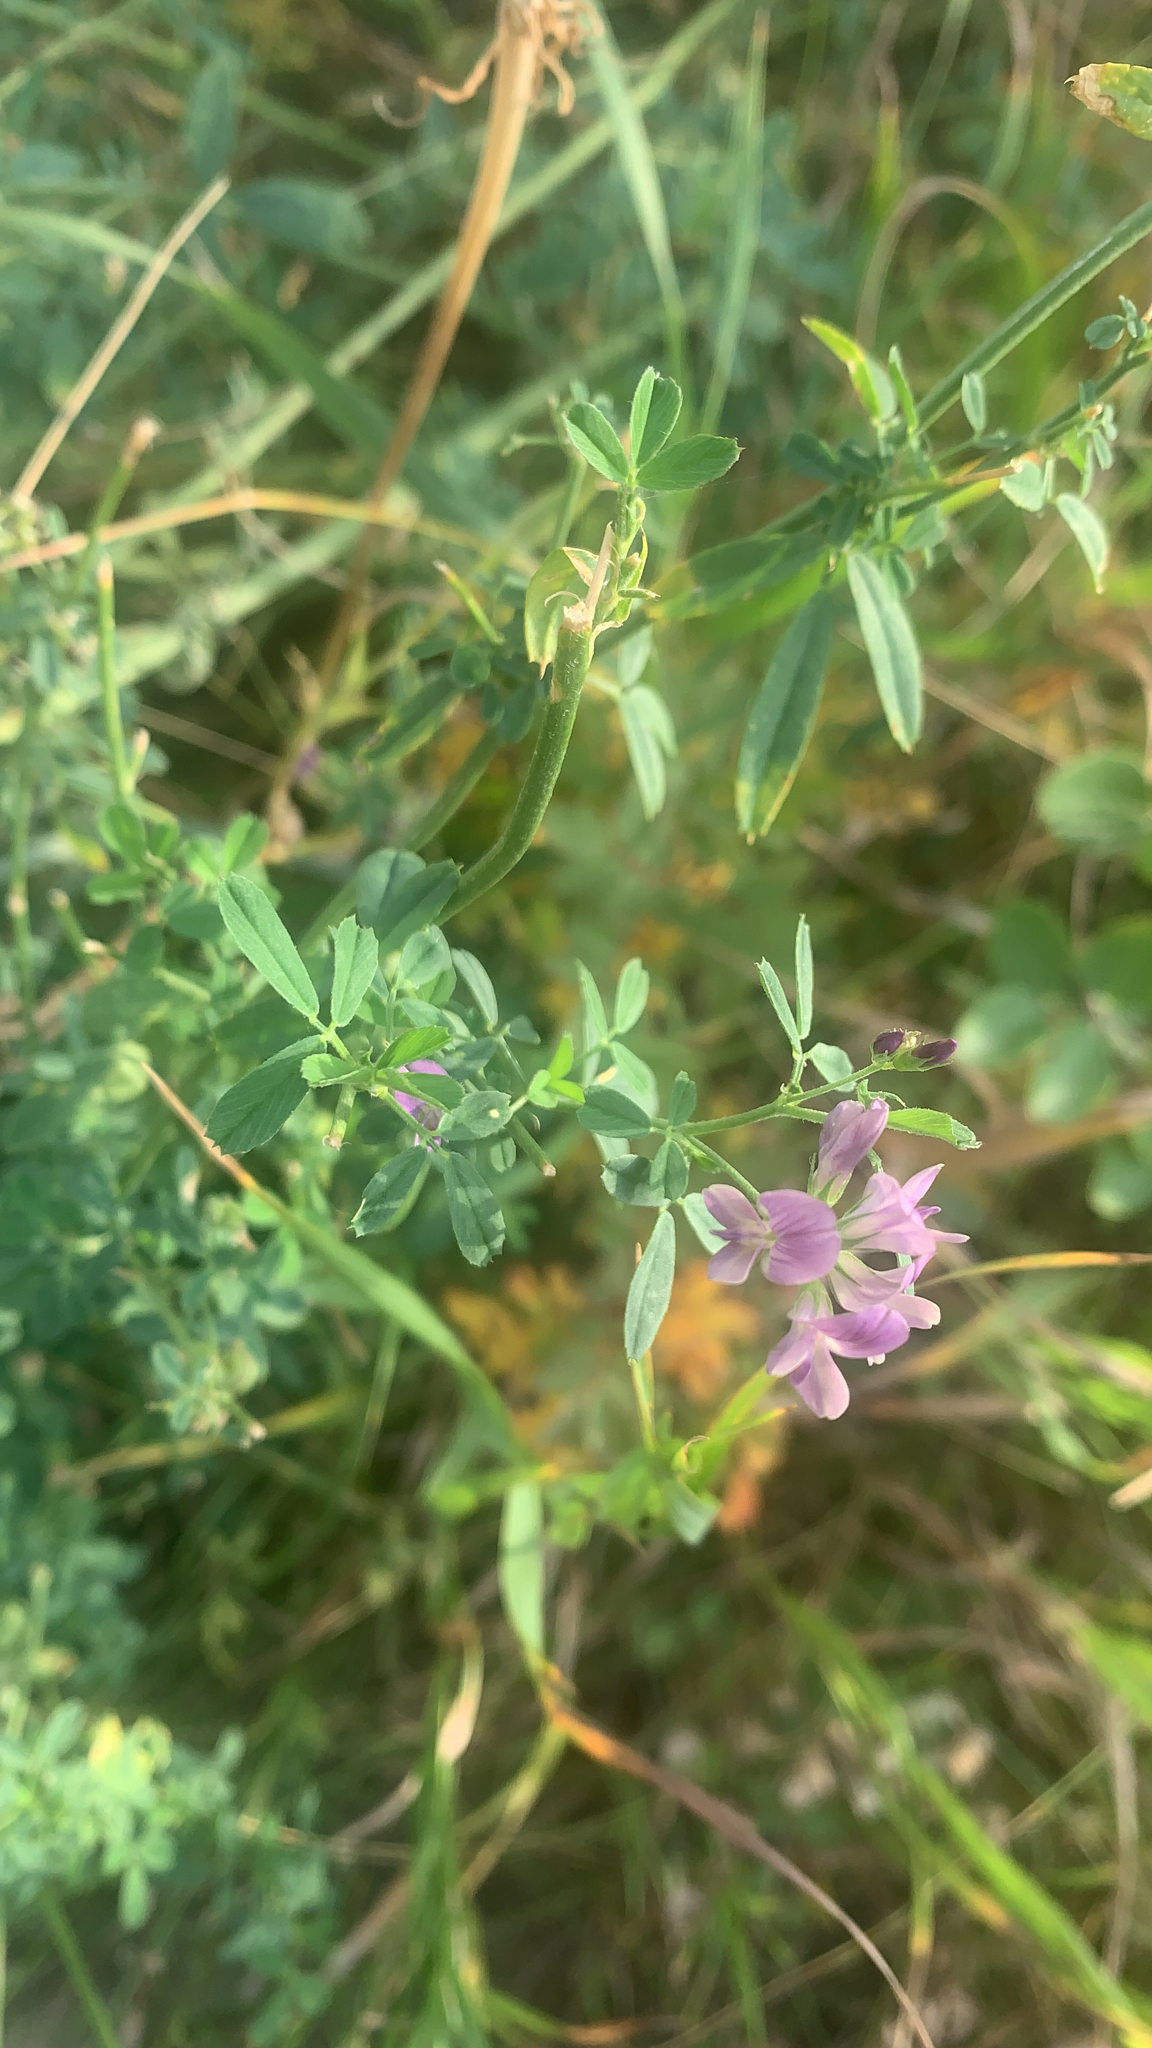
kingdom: Plantae
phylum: Tracheophyta
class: Magnoliopsida
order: Fabales
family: Fabaceae
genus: Medicago
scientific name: Medicago sativa
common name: Alfalfa
